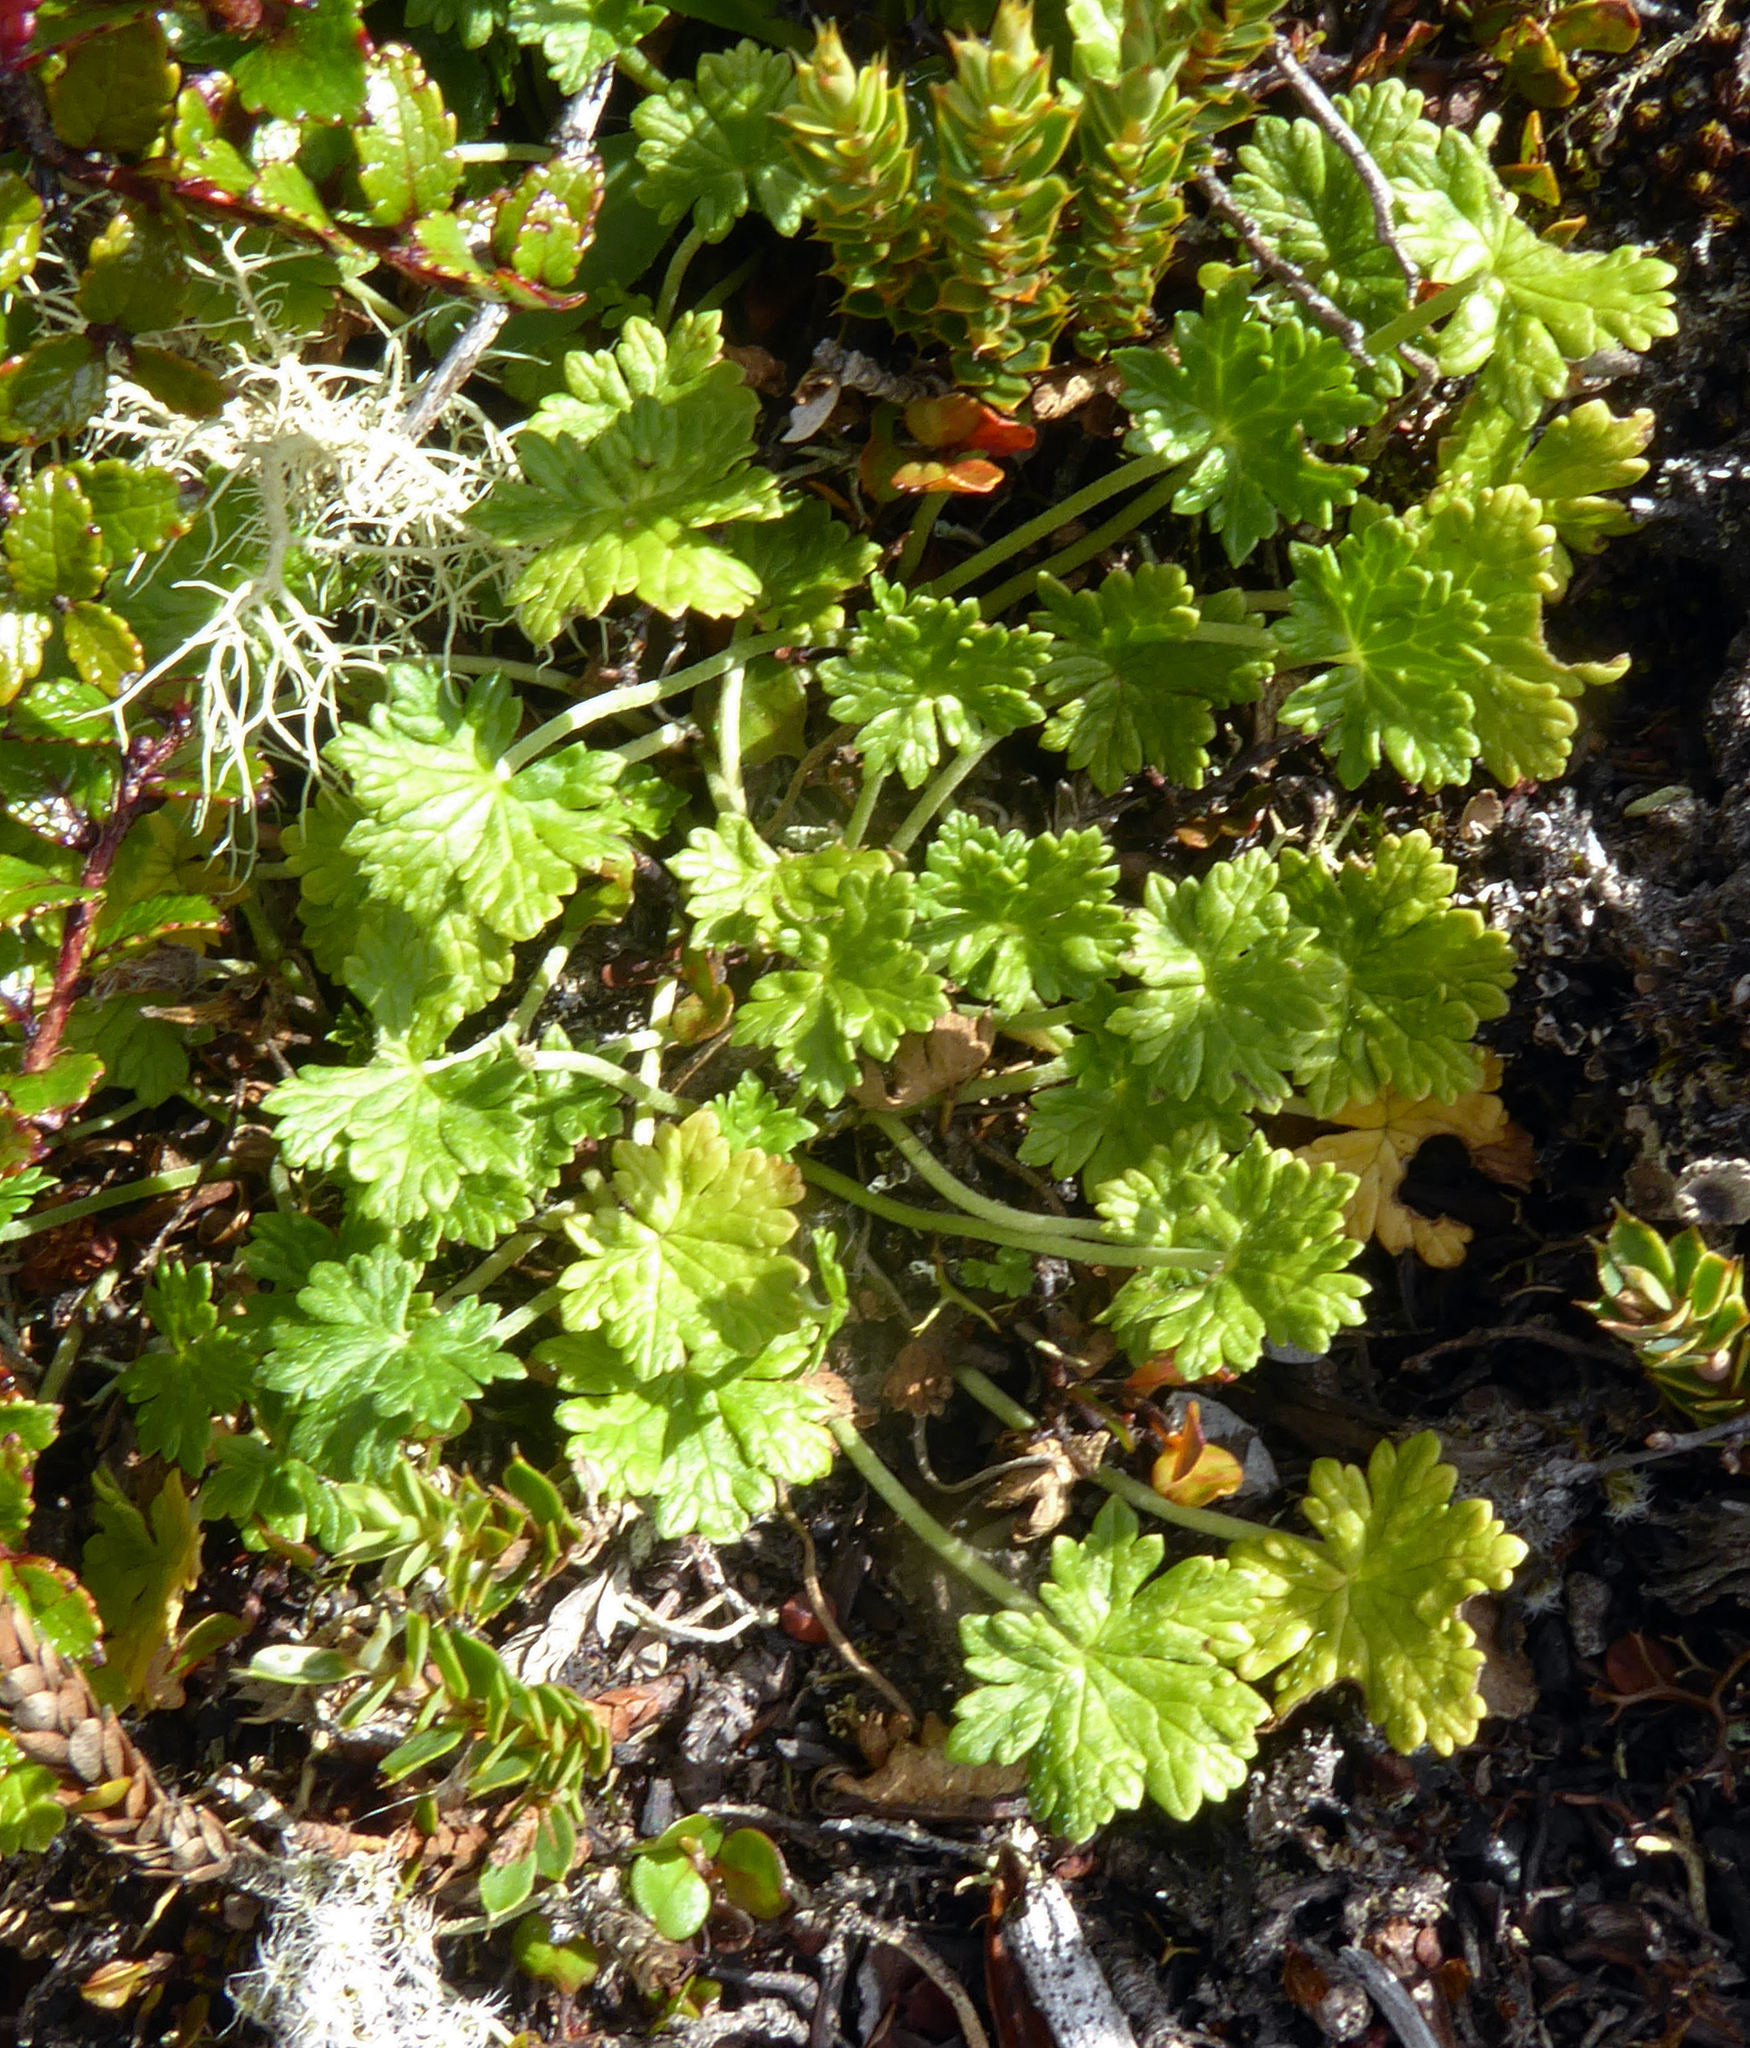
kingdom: Plantae
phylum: Tracheophyta
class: Magnoliopsida
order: Geraniales
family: Geraniaceae
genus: Geranium
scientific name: Geranium brevicaule
